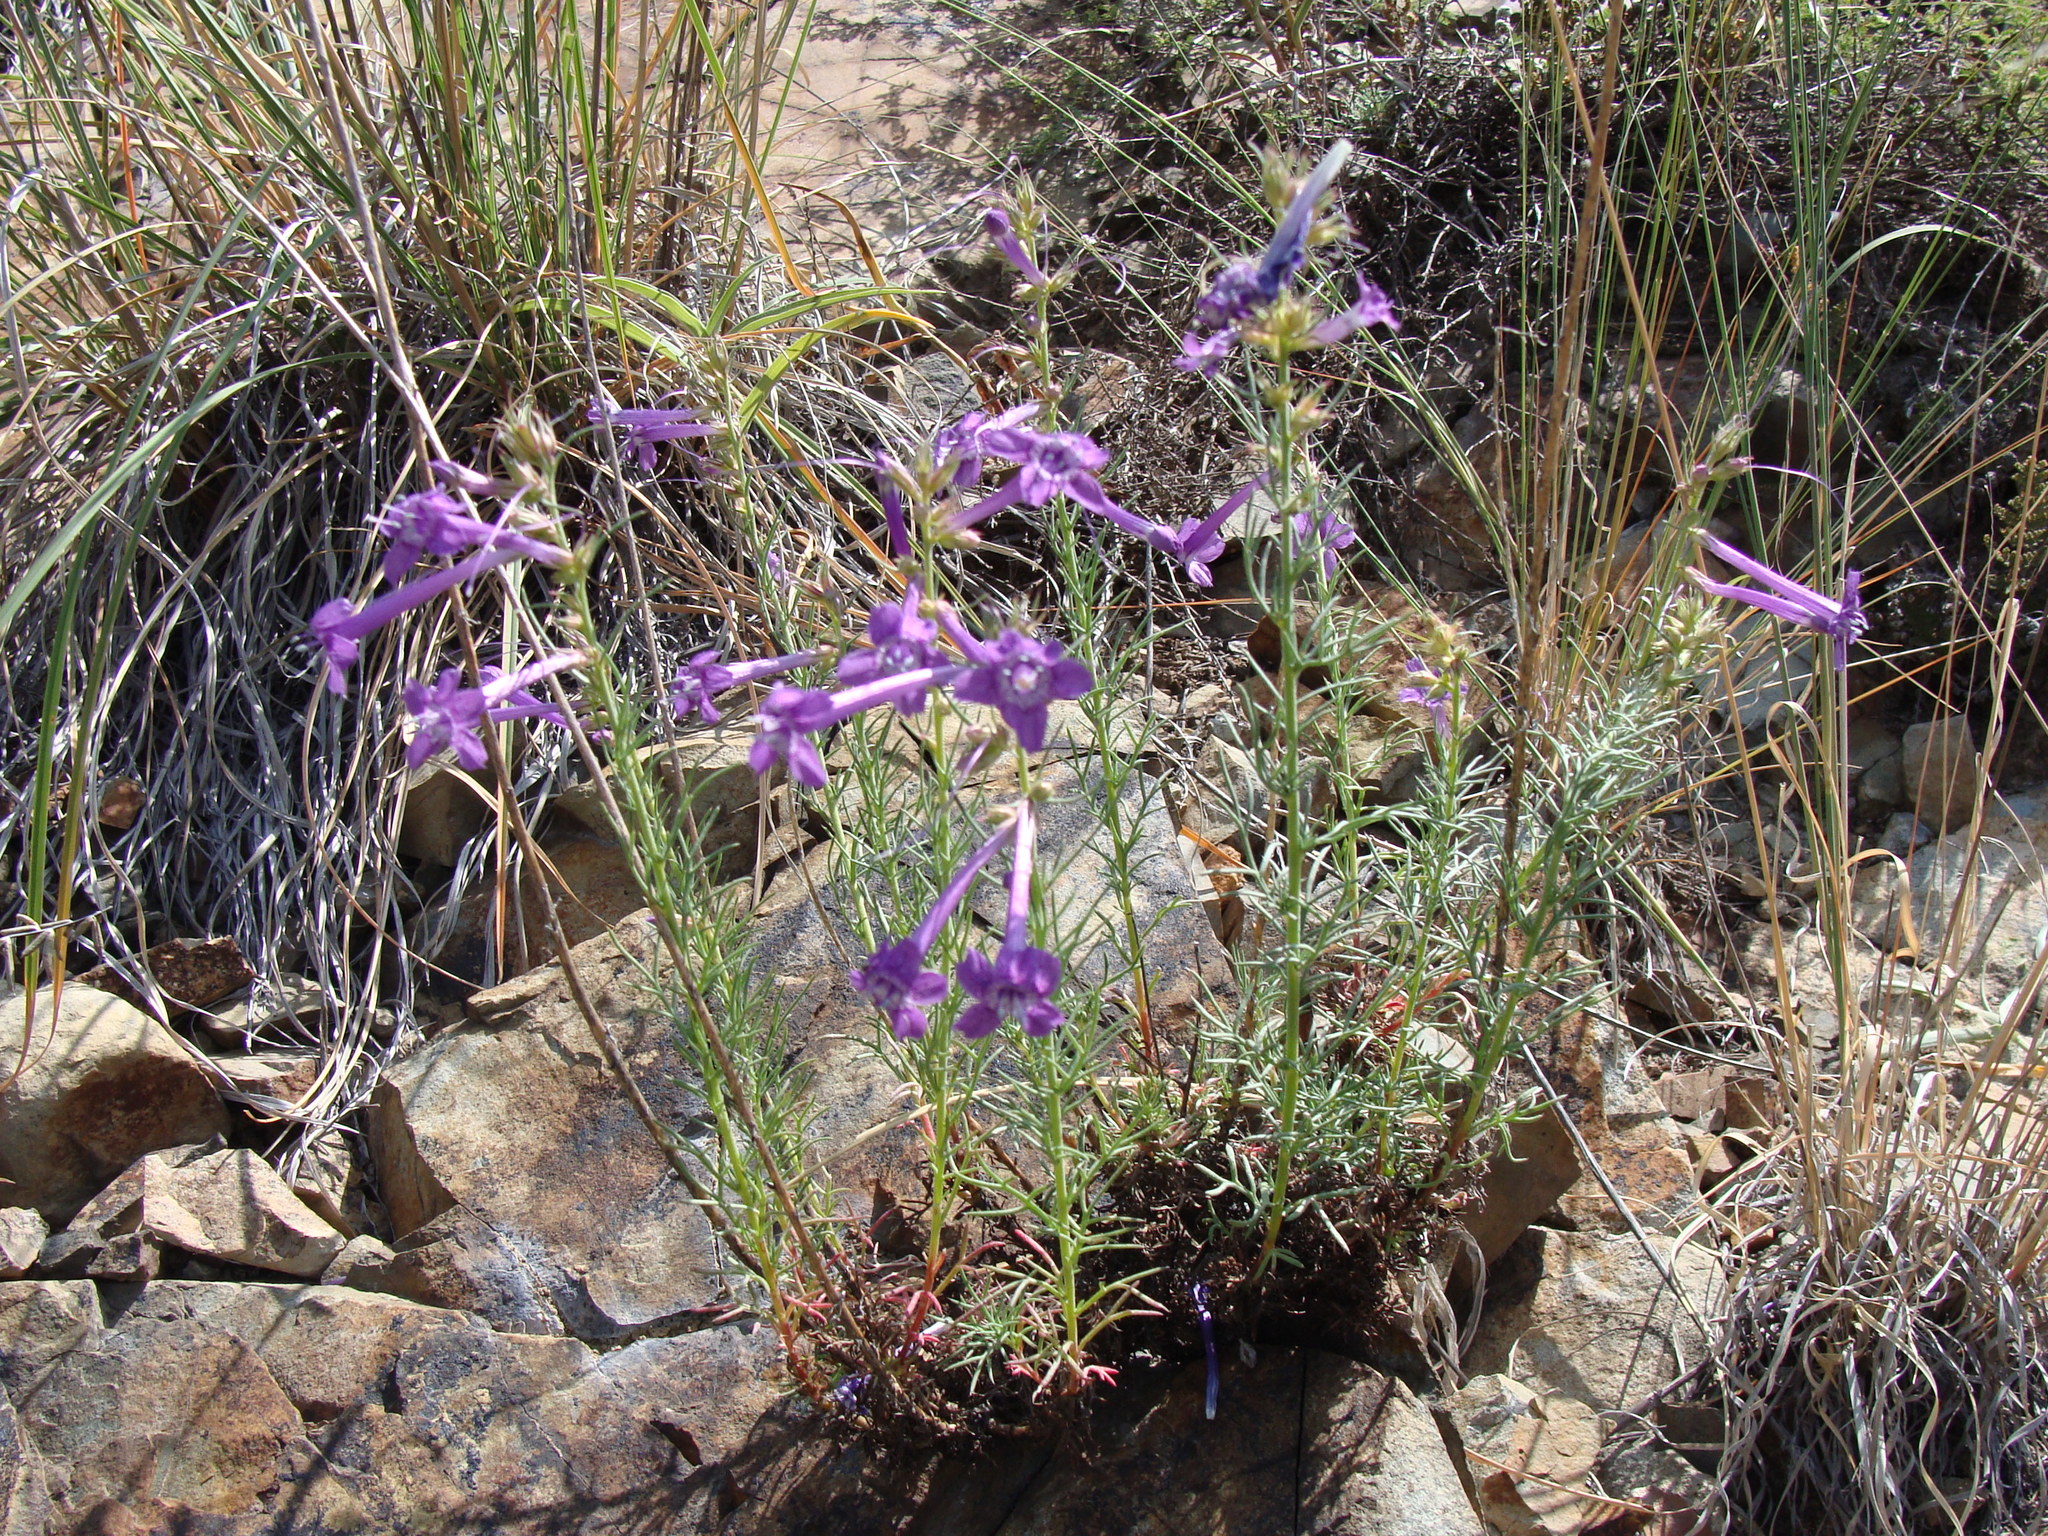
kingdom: Plantae
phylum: Tracheophyta
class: Magnoliopsida
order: Ericales
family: Polemoniaceae
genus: Ipomopsis
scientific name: Ipomopsis thurberi
